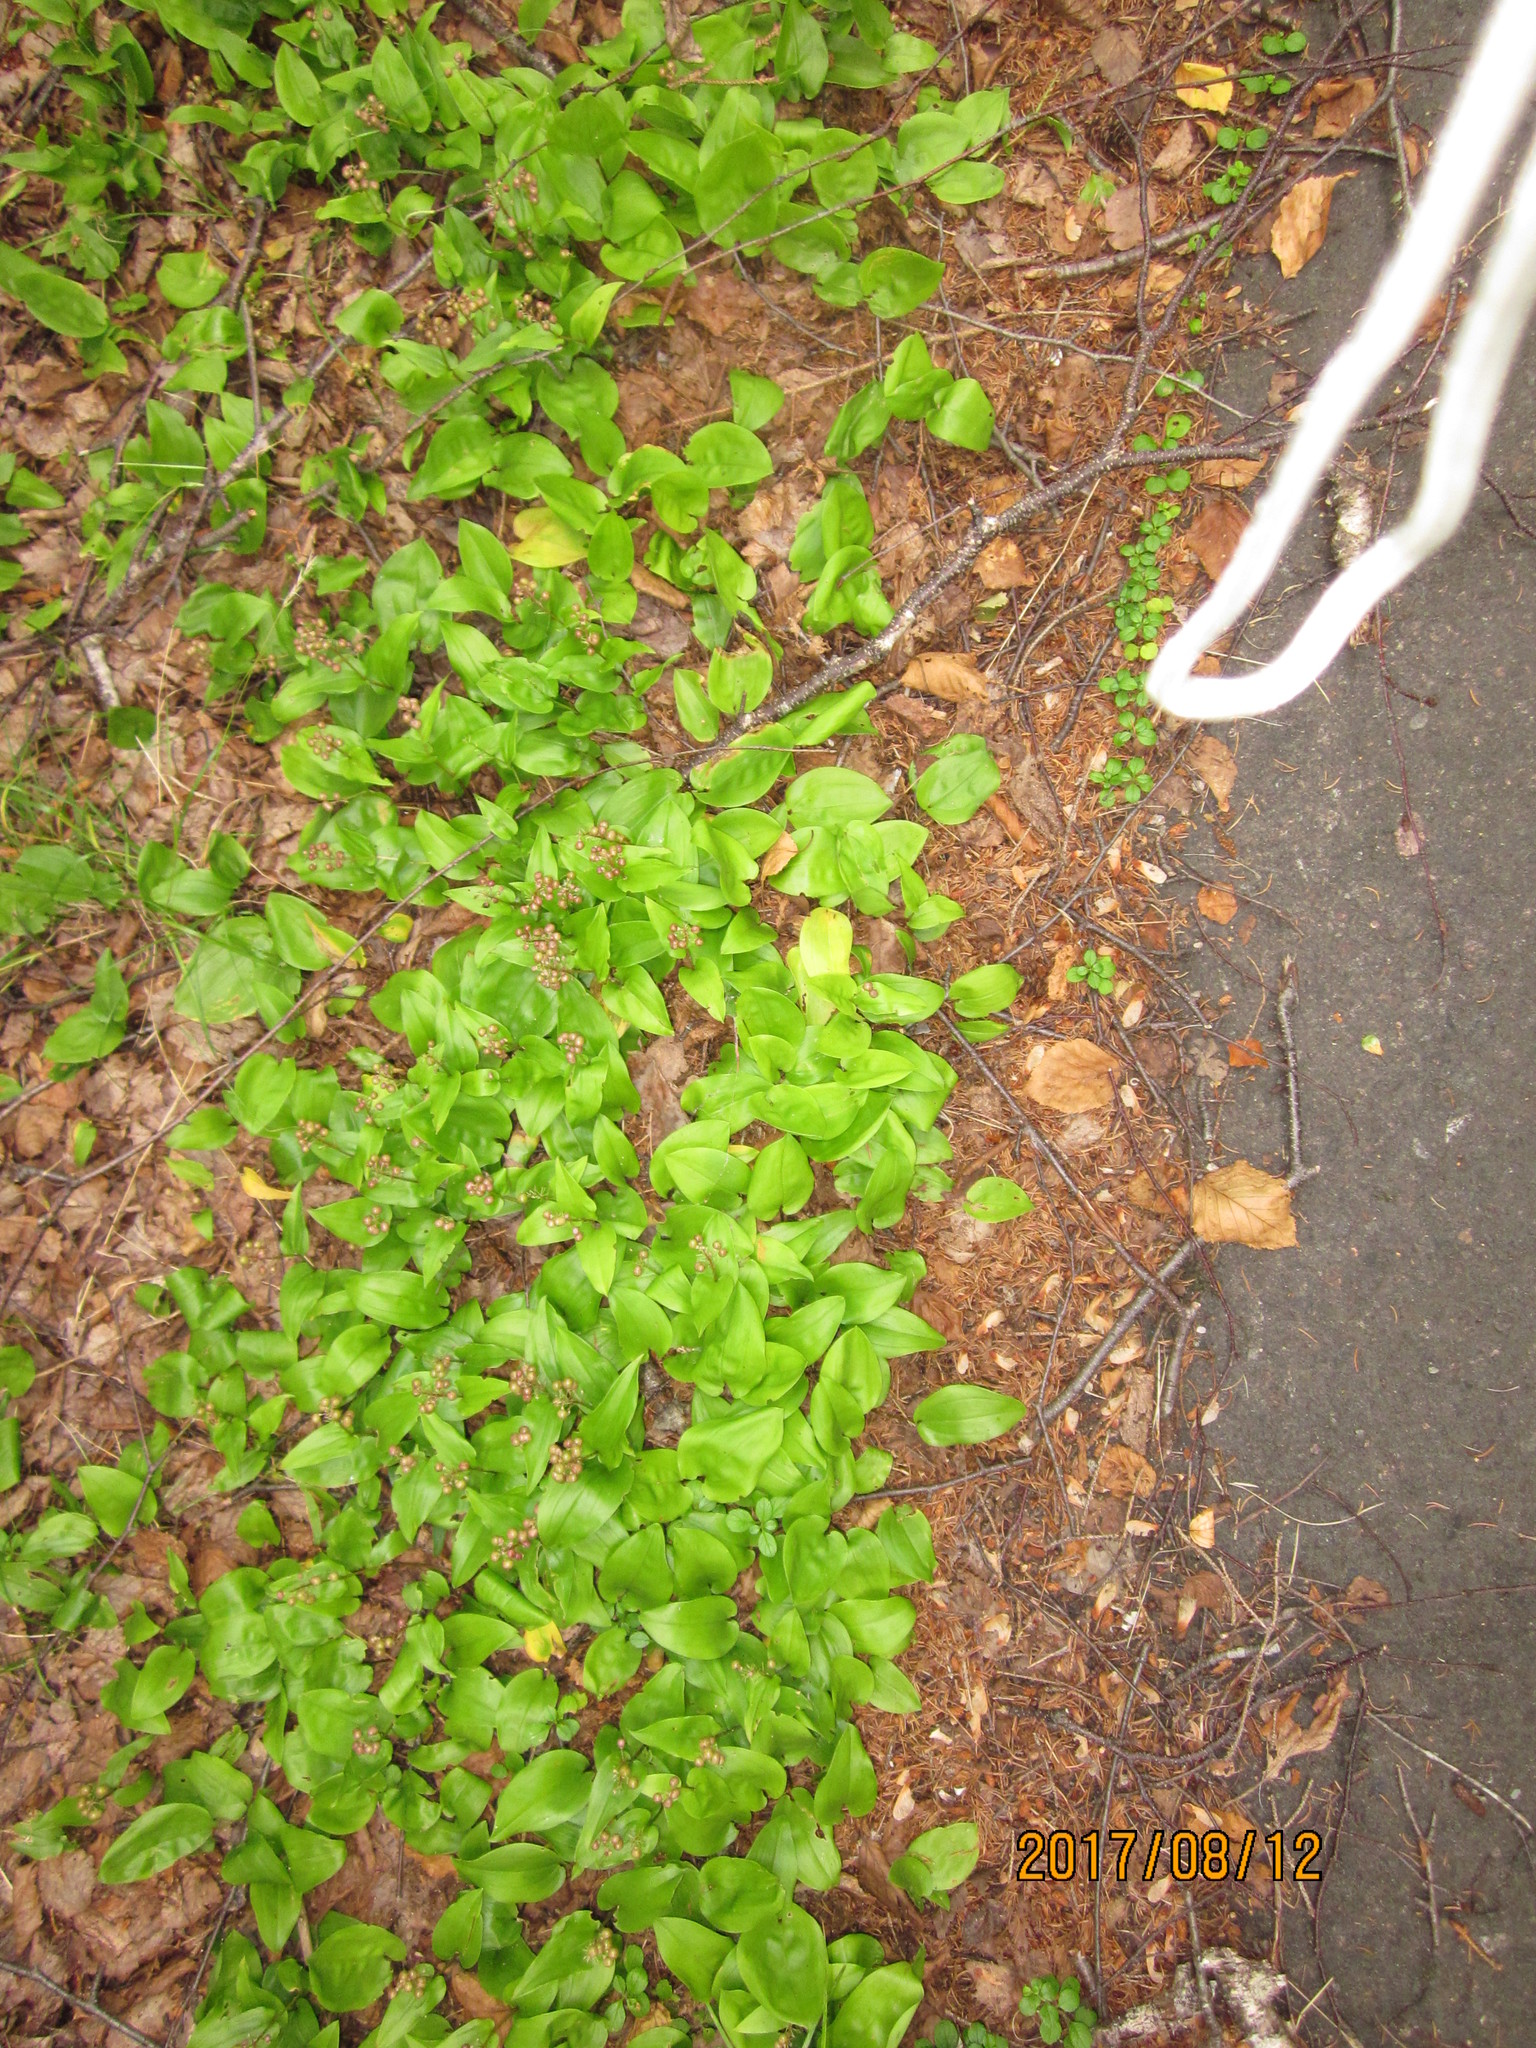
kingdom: Plantae
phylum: Tracheophyta
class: Liliopsida
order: Asparagales
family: Asparagaceae
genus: Maianthemum
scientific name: Maianthemum canadense
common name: False lily-of-the-valley
